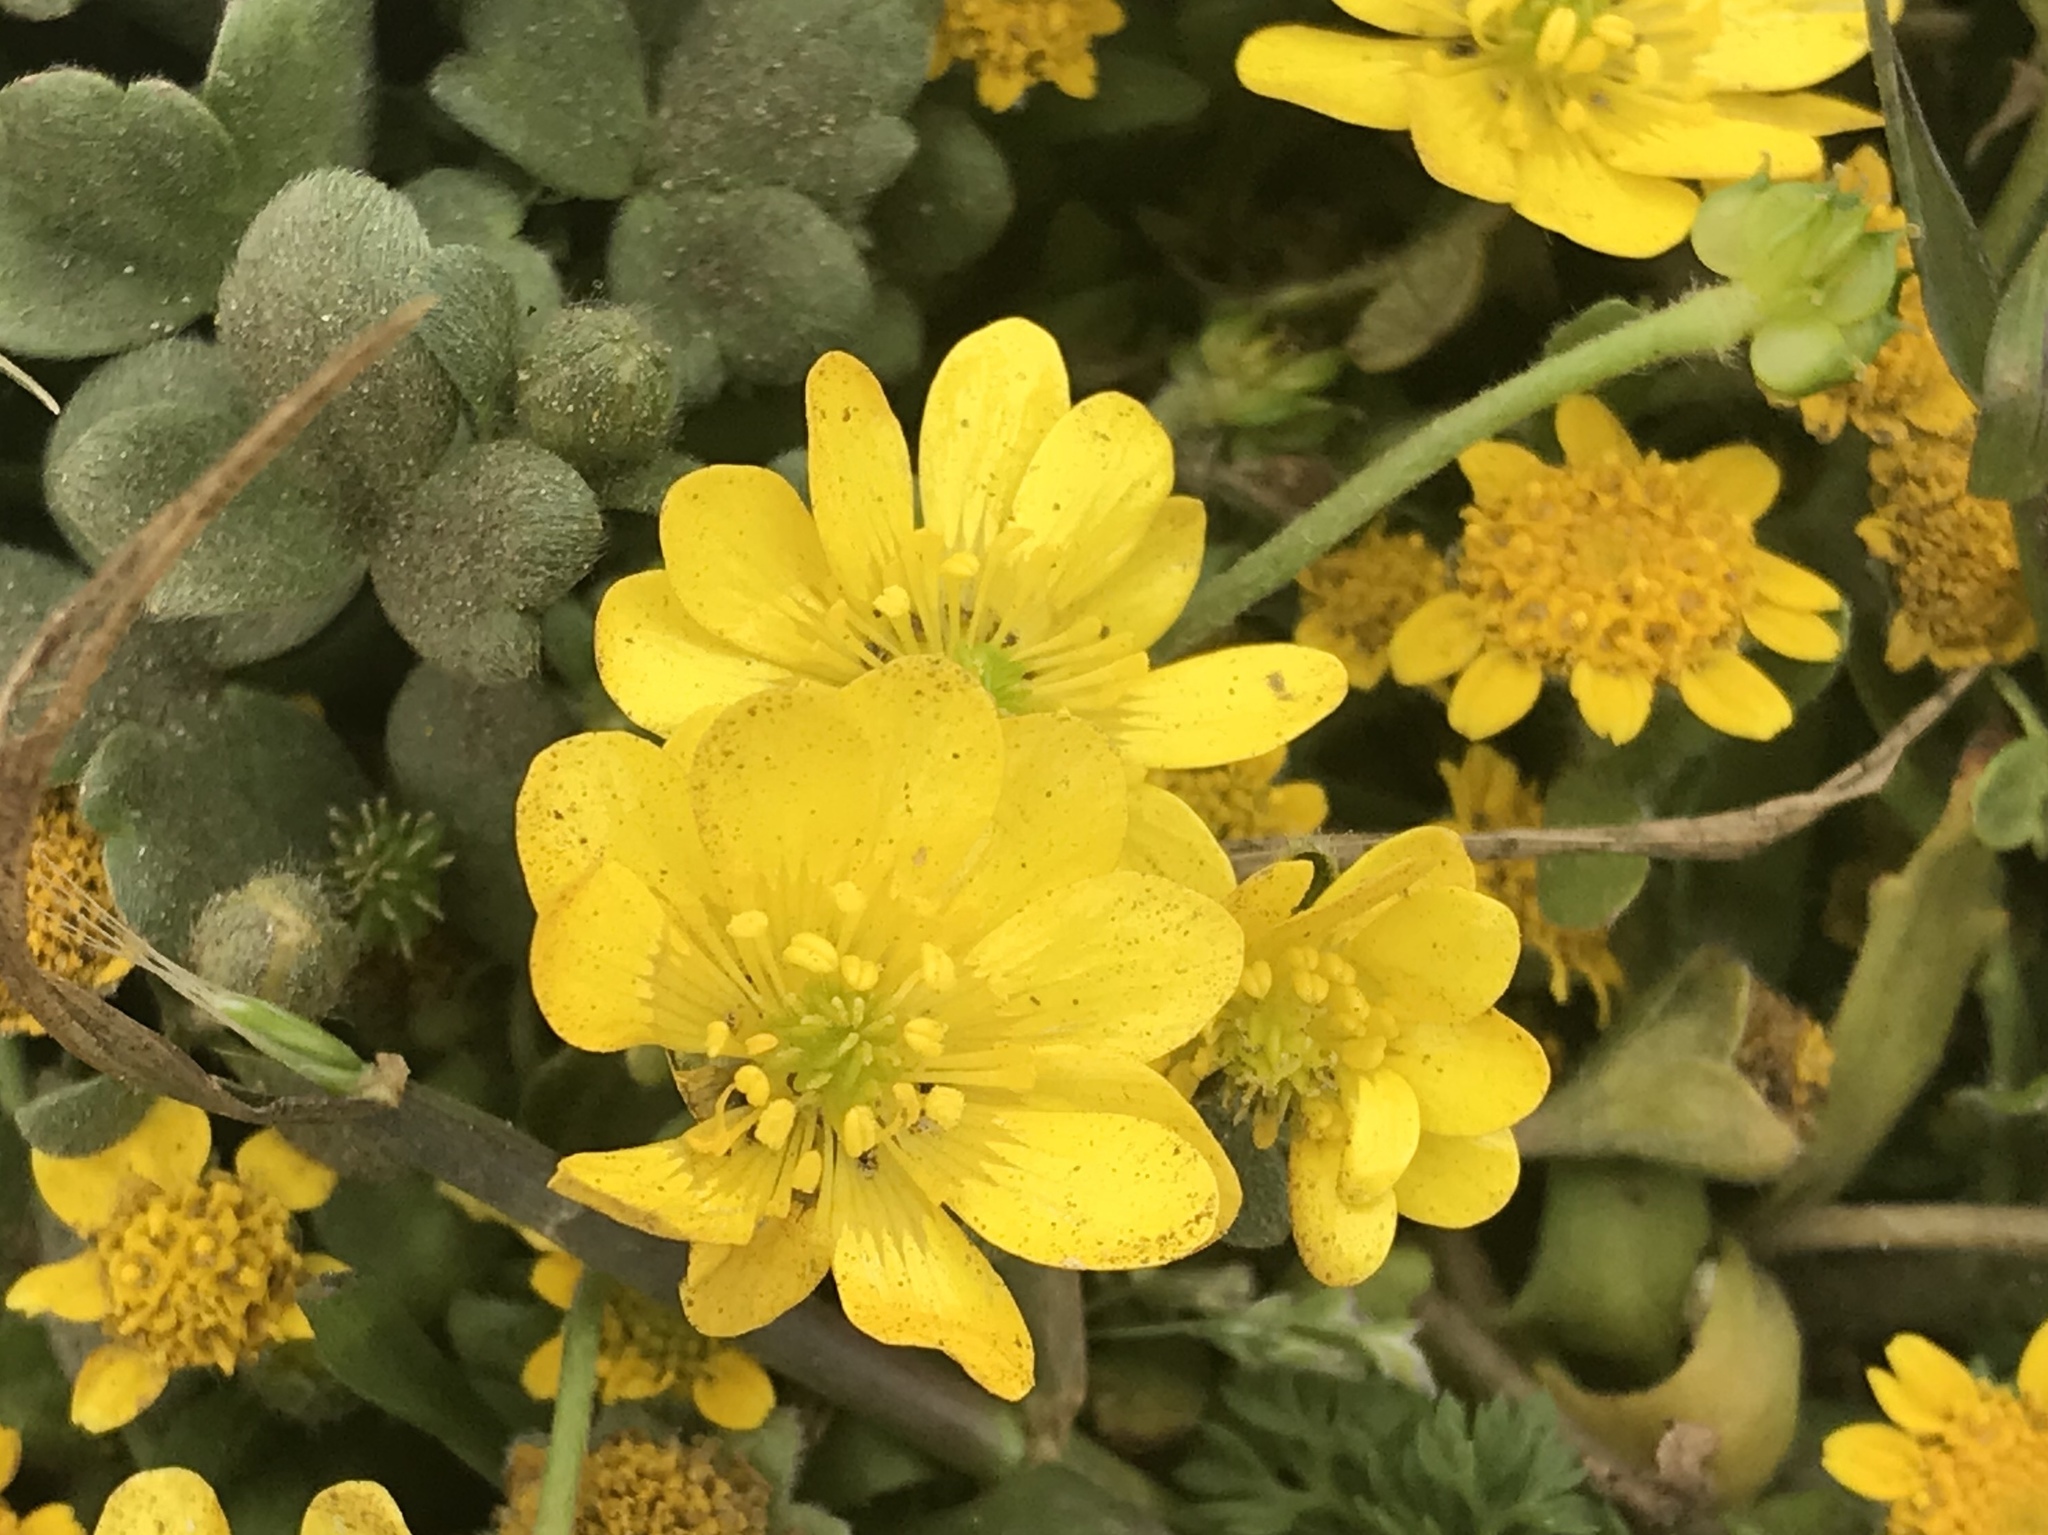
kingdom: Plantae
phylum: Tracheophyta
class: Magnoliopsida
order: Ranunculales
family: Ranunculaceae
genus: Ranunculus
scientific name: Ranunculus californicus
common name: California buttercup
